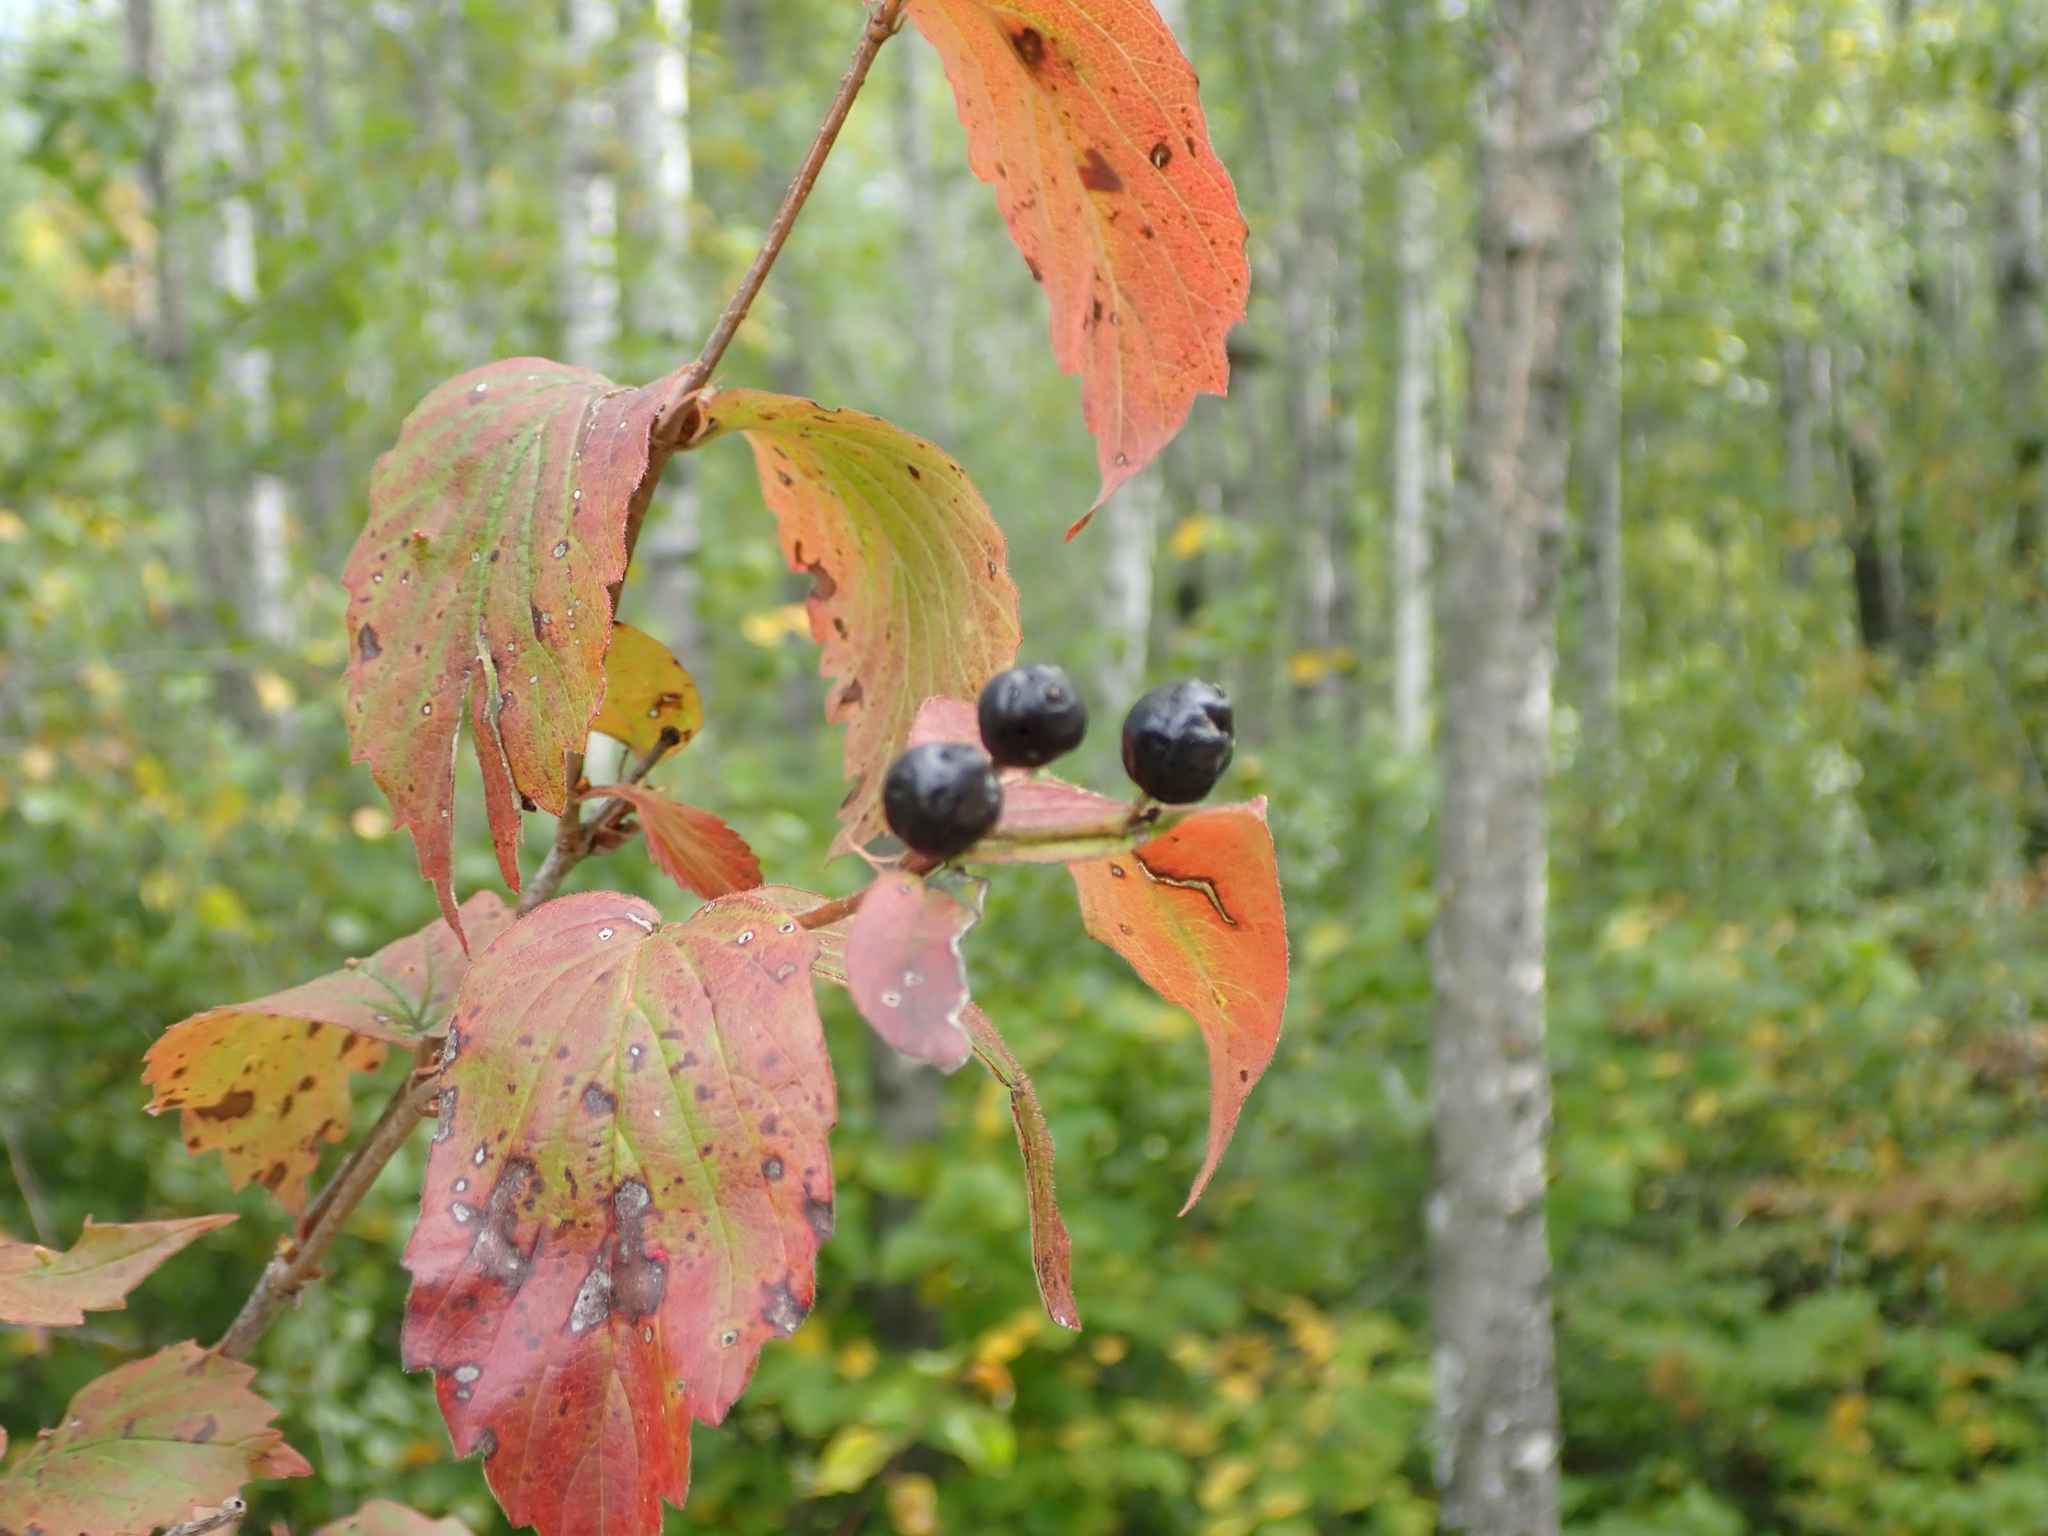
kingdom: Plantae
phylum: Tracheophyta
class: Magnoliopsida
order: Dipsacales
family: Viburnaceae
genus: Viburnum
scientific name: Viburnum rafinesqueanum
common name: Downy arrow-wood
